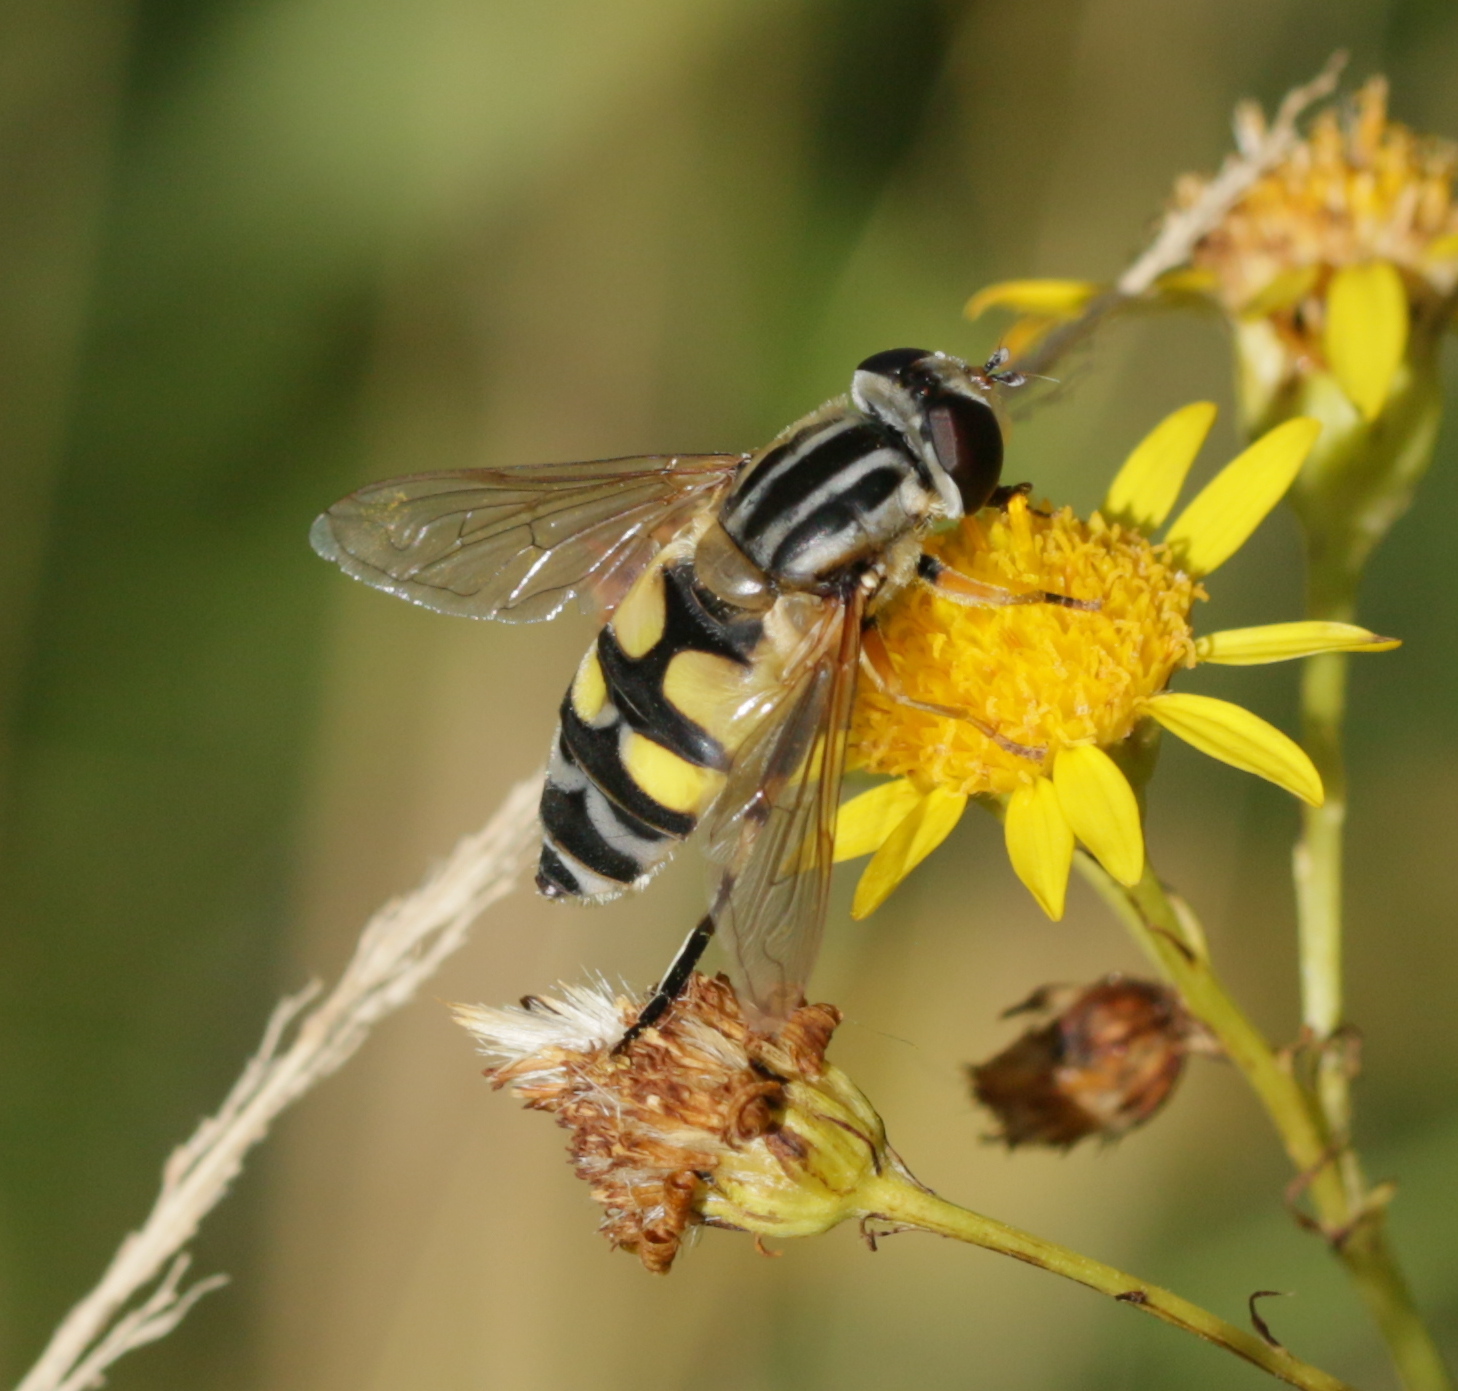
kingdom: Animalia
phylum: Arthropoda
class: Insecta
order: Diptera
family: Syrphidae
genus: Helophilus
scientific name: Helophilus trivittatus
